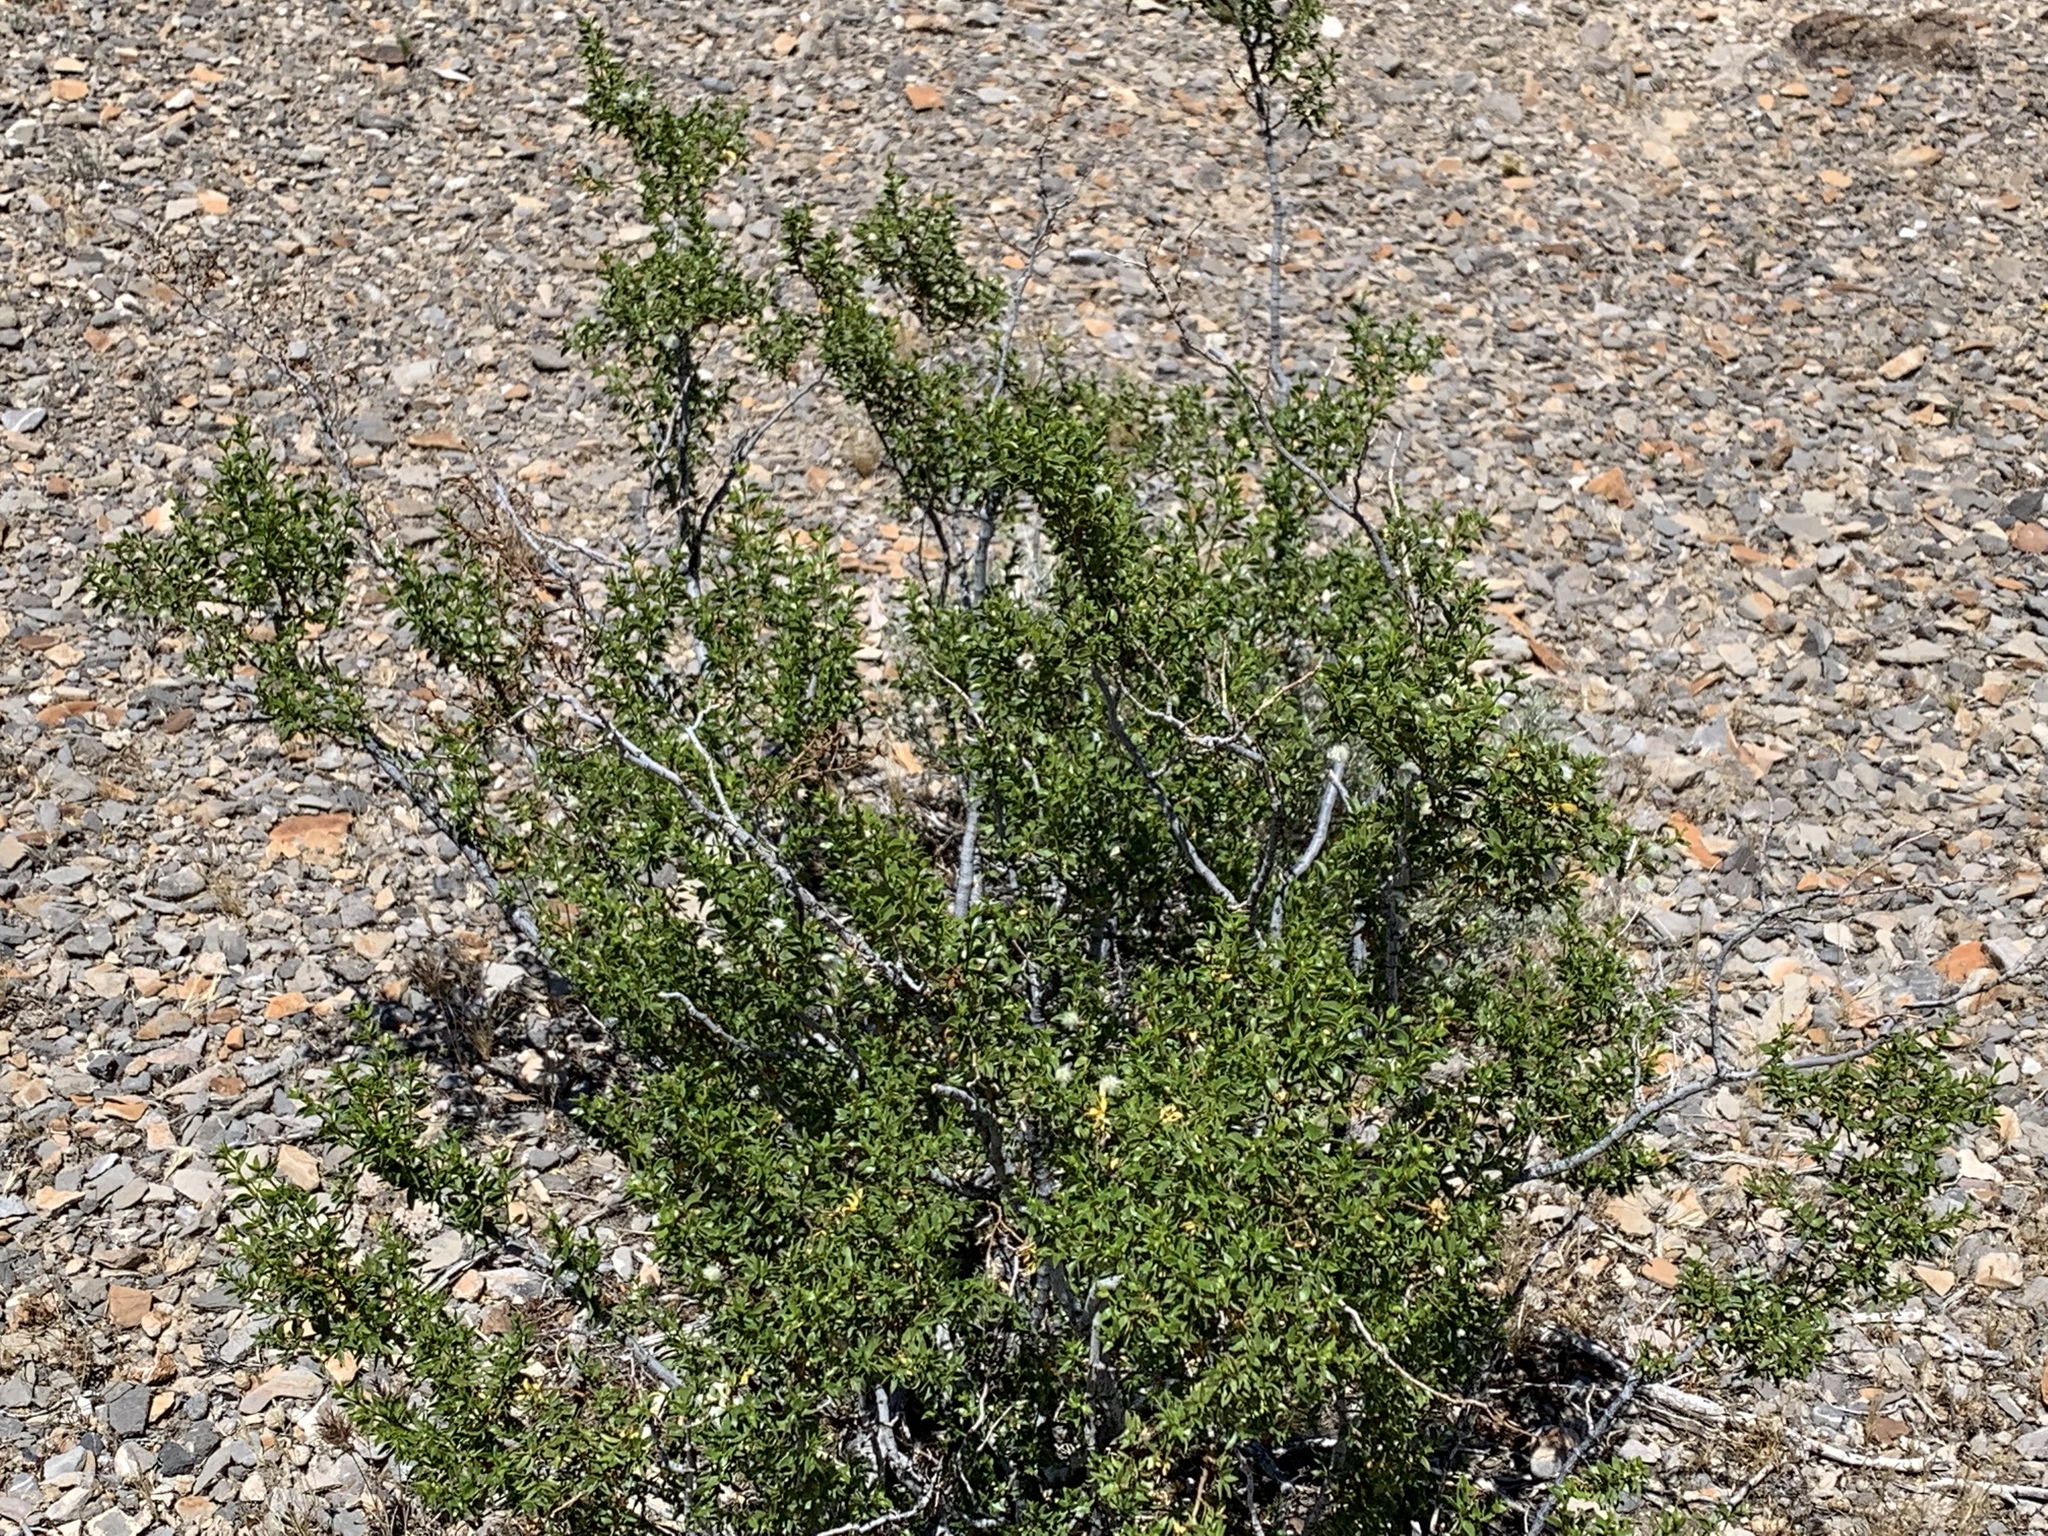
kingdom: Plantae
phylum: Tracheophyta
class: Magnoliopsida
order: Zygophyllales
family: Zygophyllaceae
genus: Larrea
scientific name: Larrea tridentata
